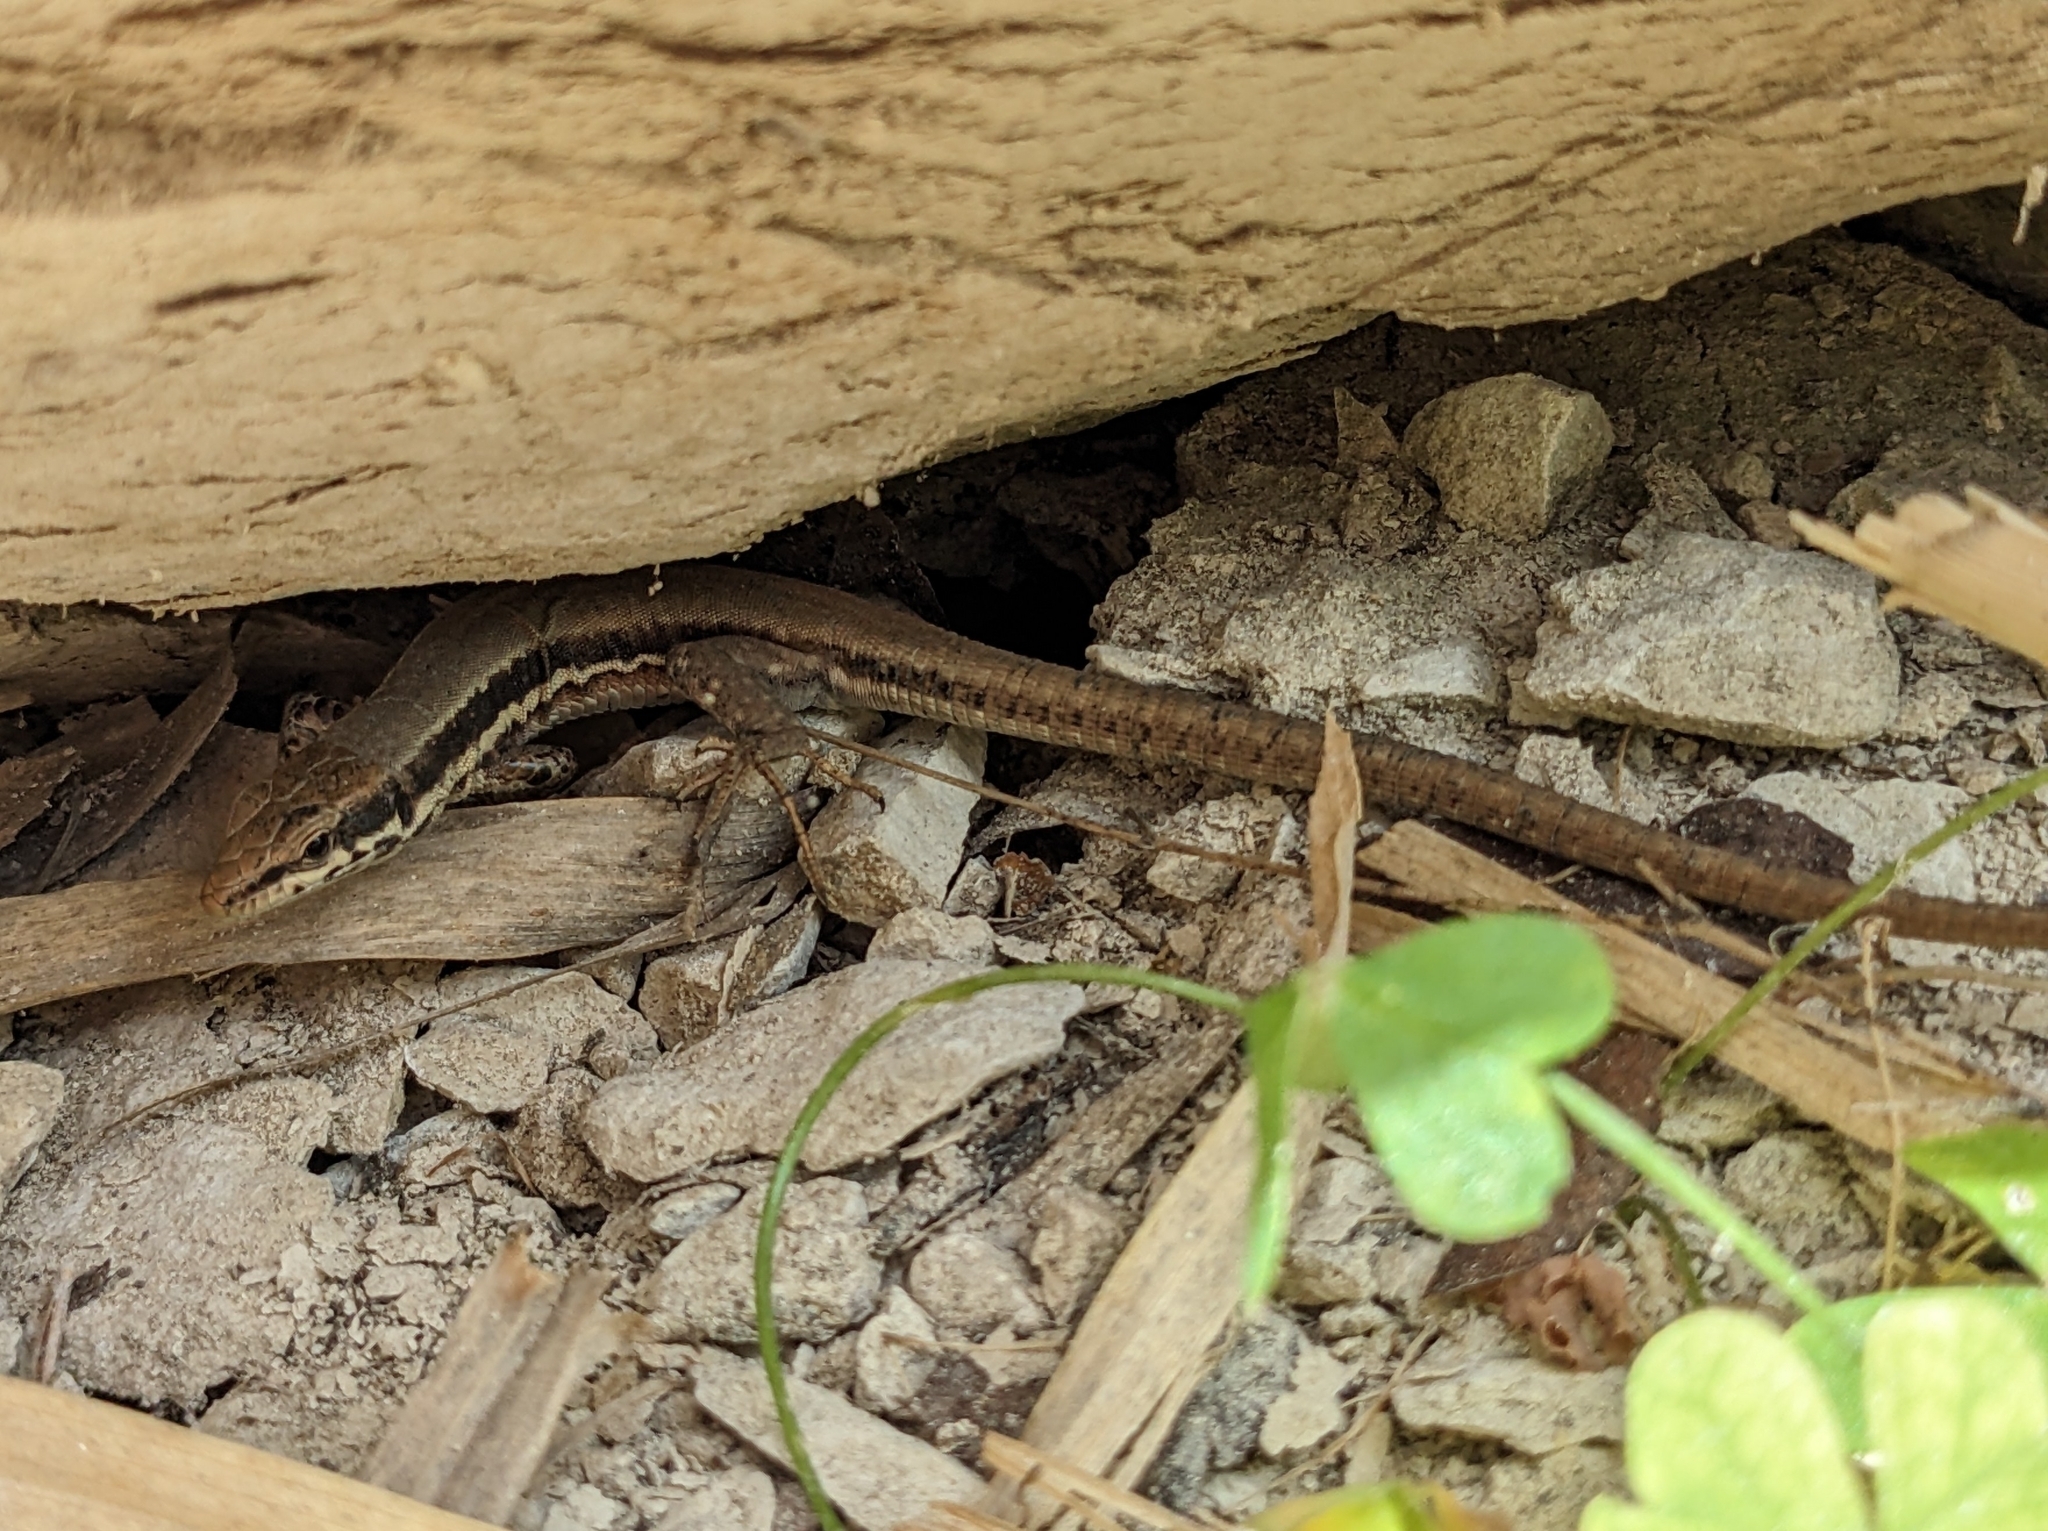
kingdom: Animalia
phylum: Chordata
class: Squamata
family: Lacertidae
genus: Phoenicolacerta
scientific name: Phoenicolacerta troodica
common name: Troodos wall lizard
